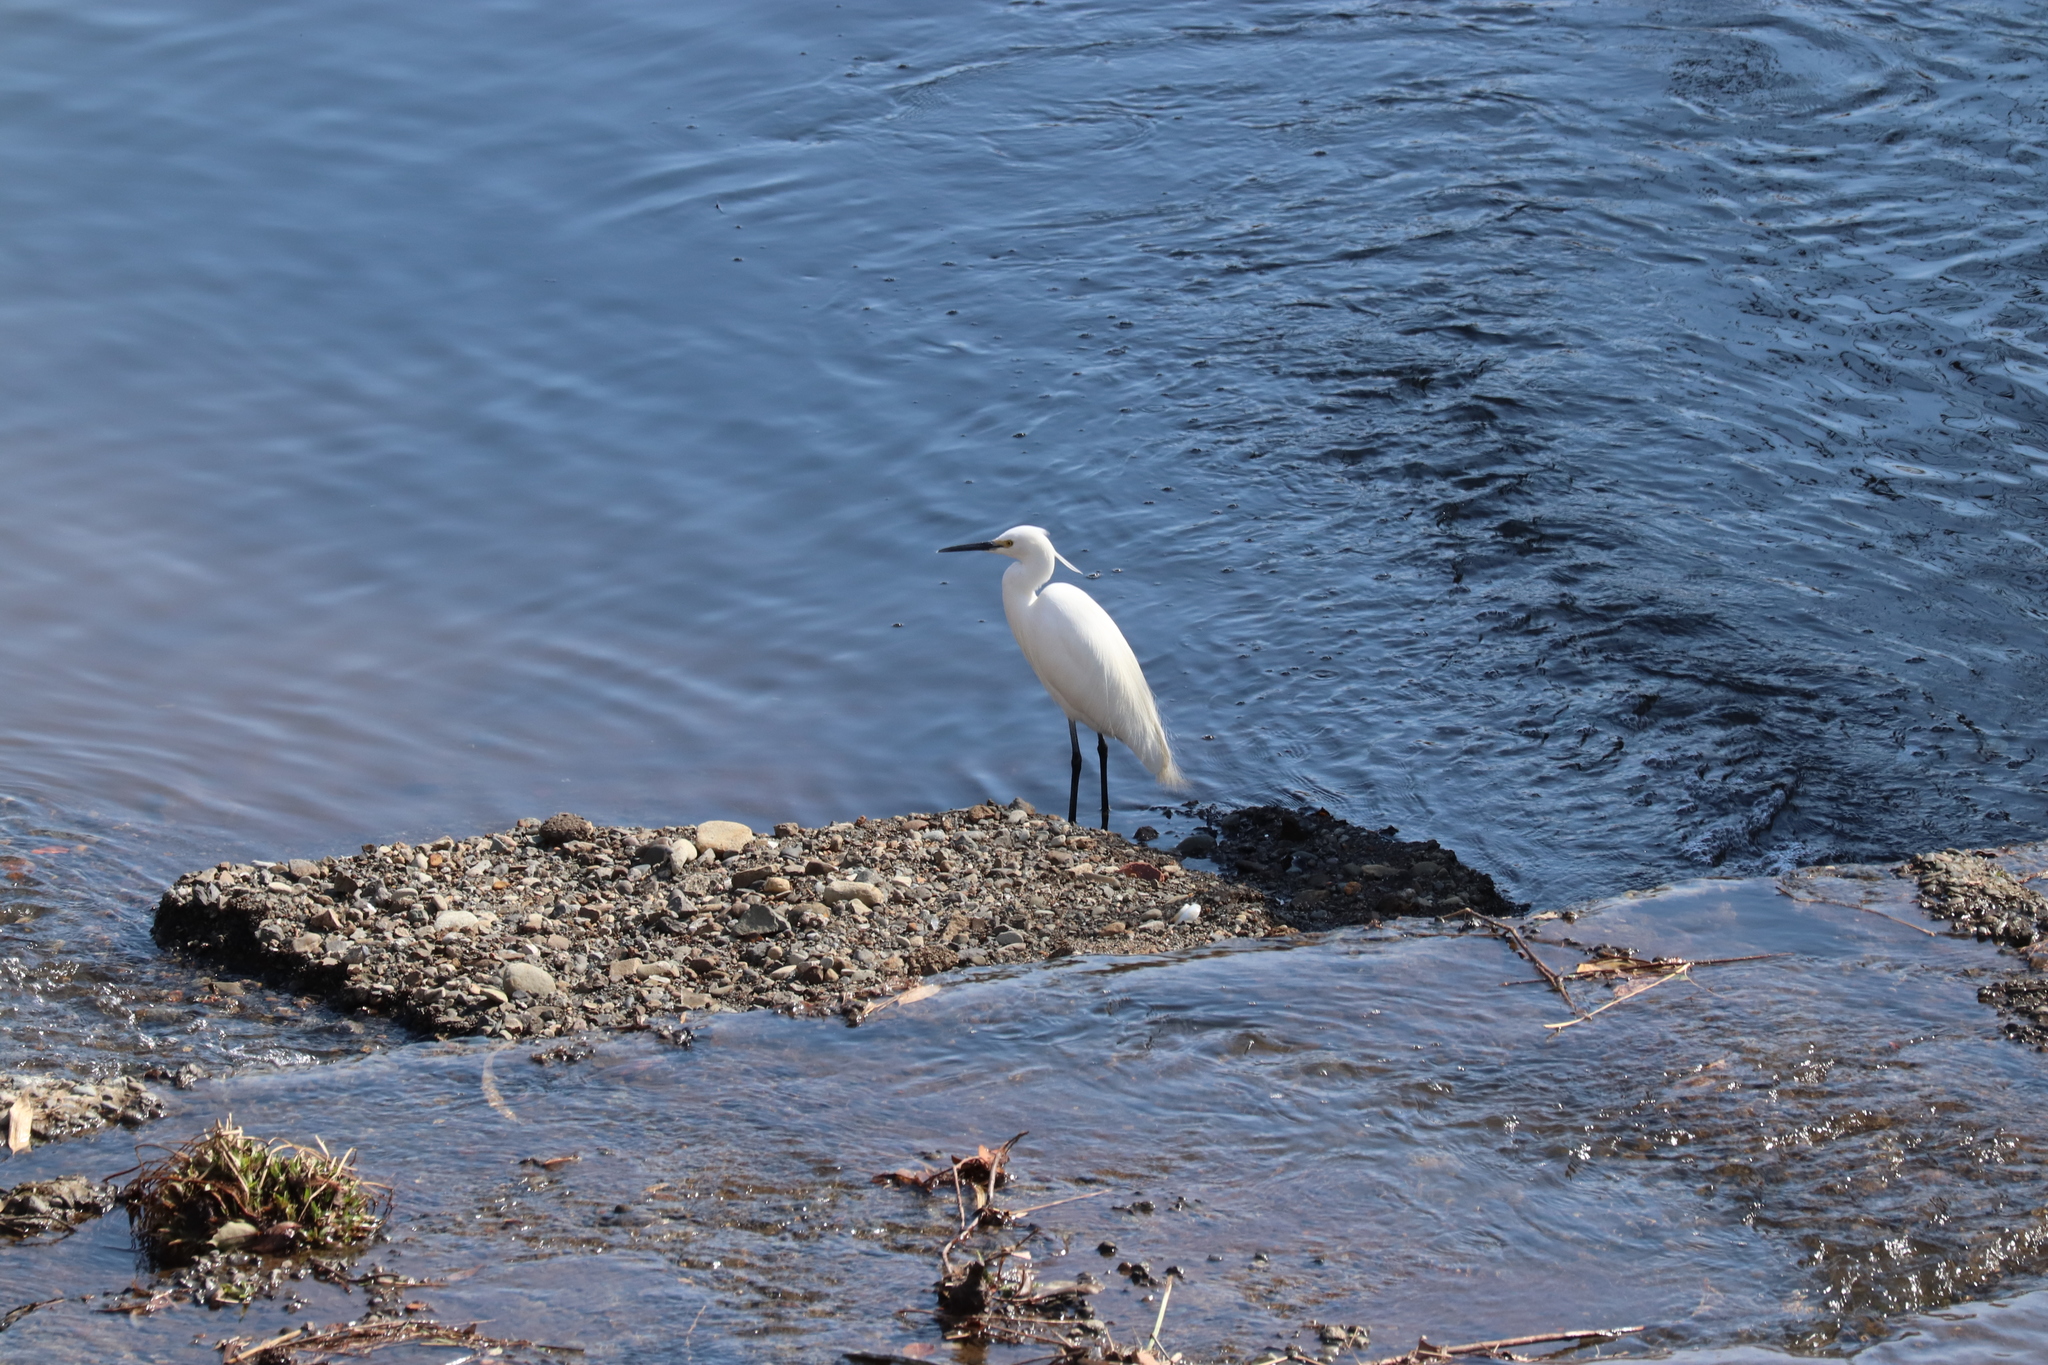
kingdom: Animalia
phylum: Chordata
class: Aves
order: Pelecaniformes
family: Ardeidae
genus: Egretta
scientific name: Egretta garzetta
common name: Little egret
